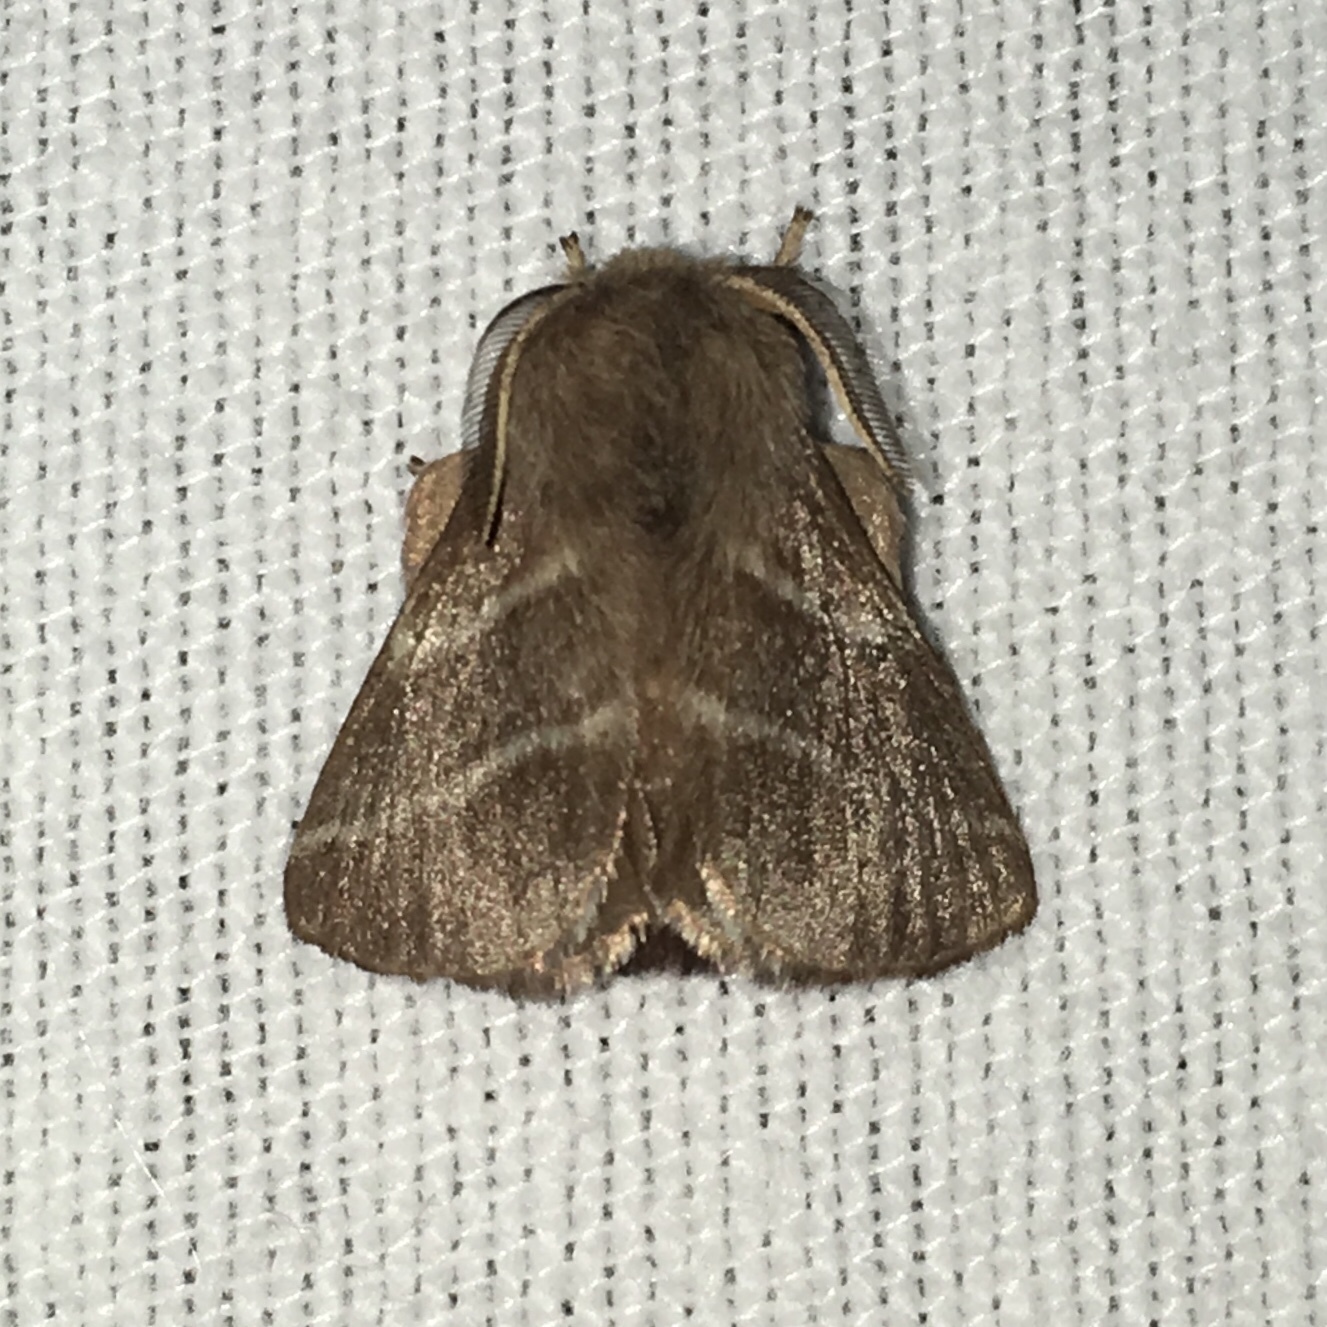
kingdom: Animalia
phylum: Arthropoda
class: Insecta
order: Lepidoptera
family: Lasiocampidae
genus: Malacosoma
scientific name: Malacosoma americana
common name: Eastern tent caterpillar moth
